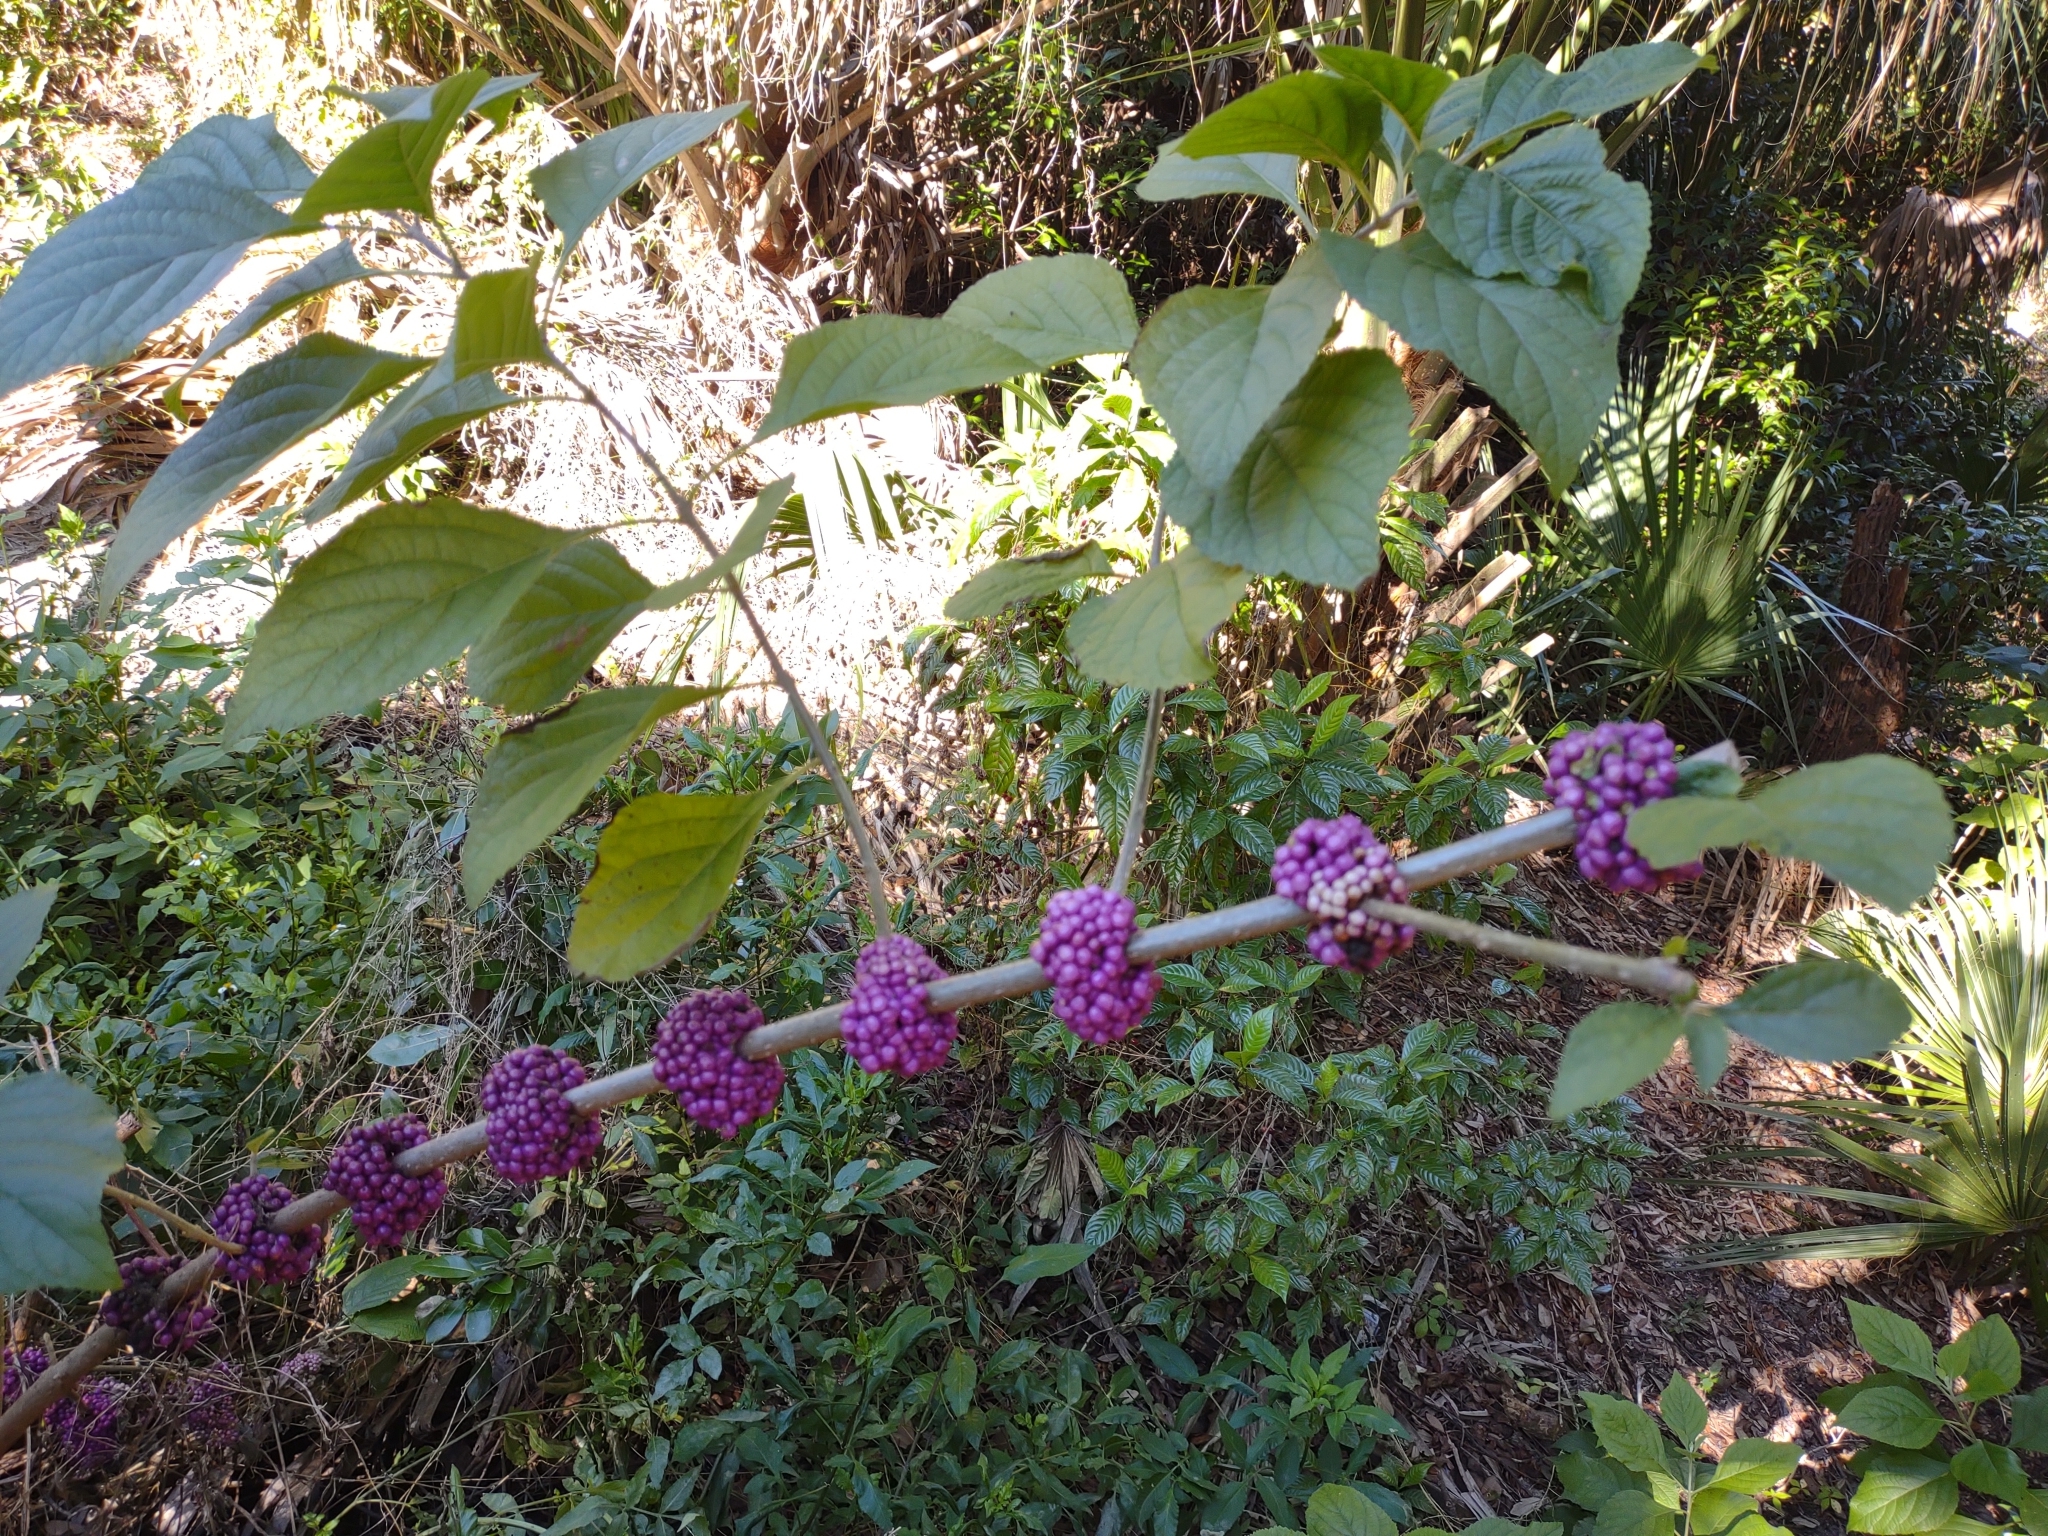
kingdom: Plantae
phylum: Tracheophyta
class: Magnoliopsida
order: Lamiales
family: Lamiaceae
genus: Callicarpa
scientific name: Callicarpa americana
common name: American beautyberry
